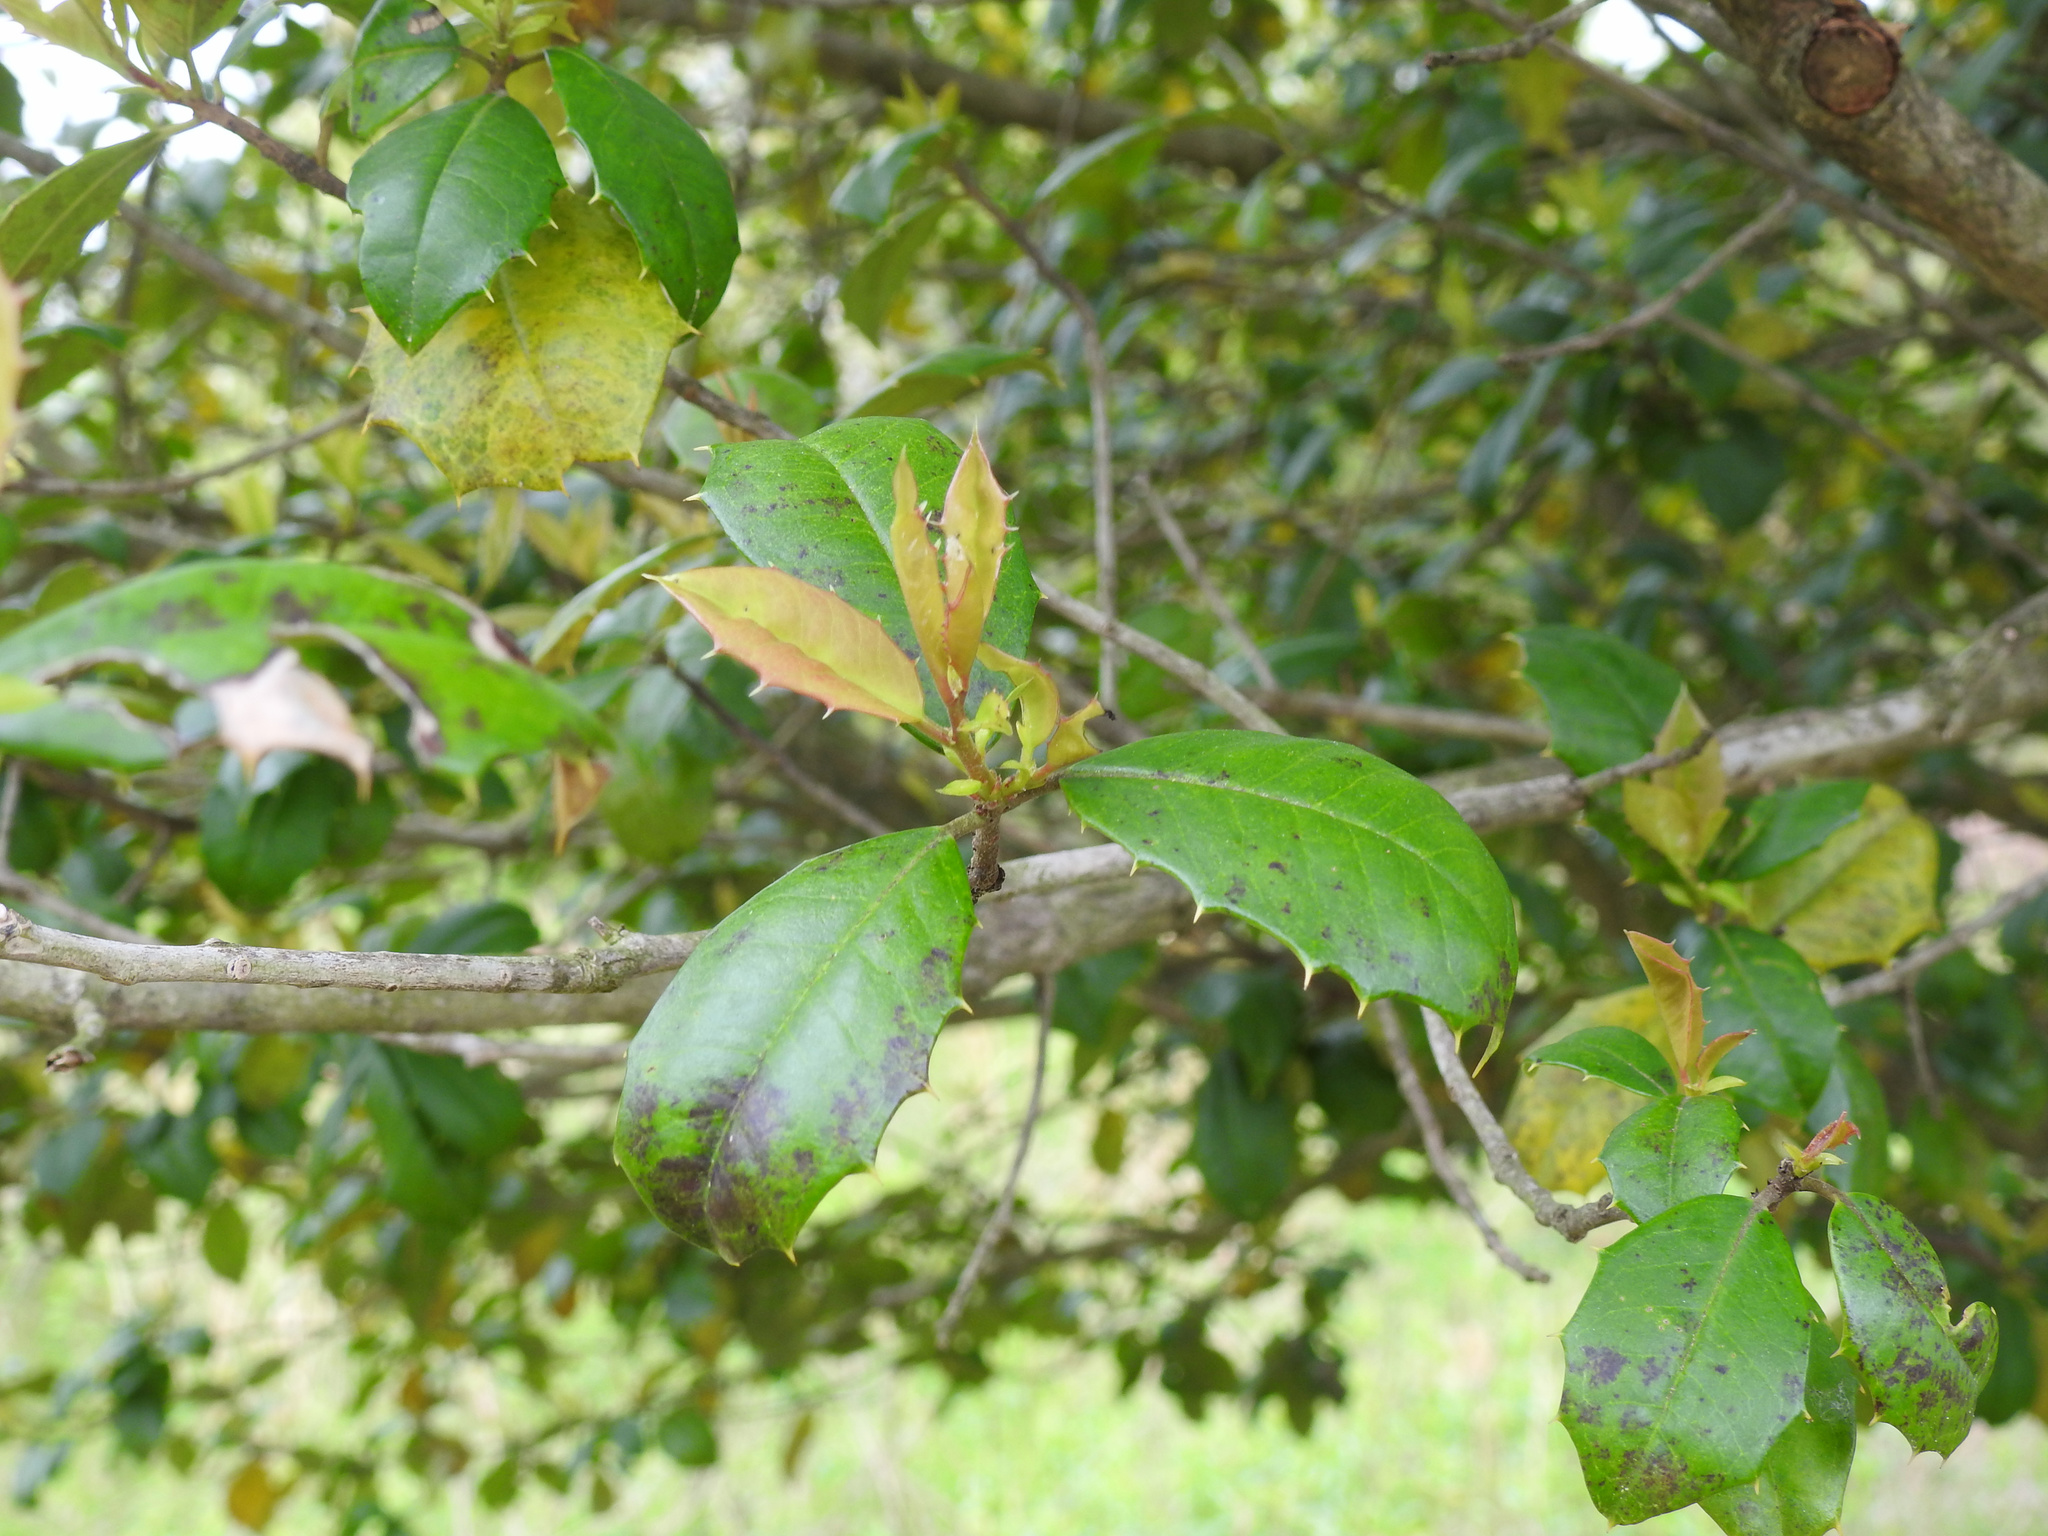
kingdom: Plantae
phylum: Tracheophyta
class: Magnoliopsida
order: Aquifoliales
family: Aquifoliaceae
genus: Ilex
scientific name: Ilex opaca
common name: American holly
